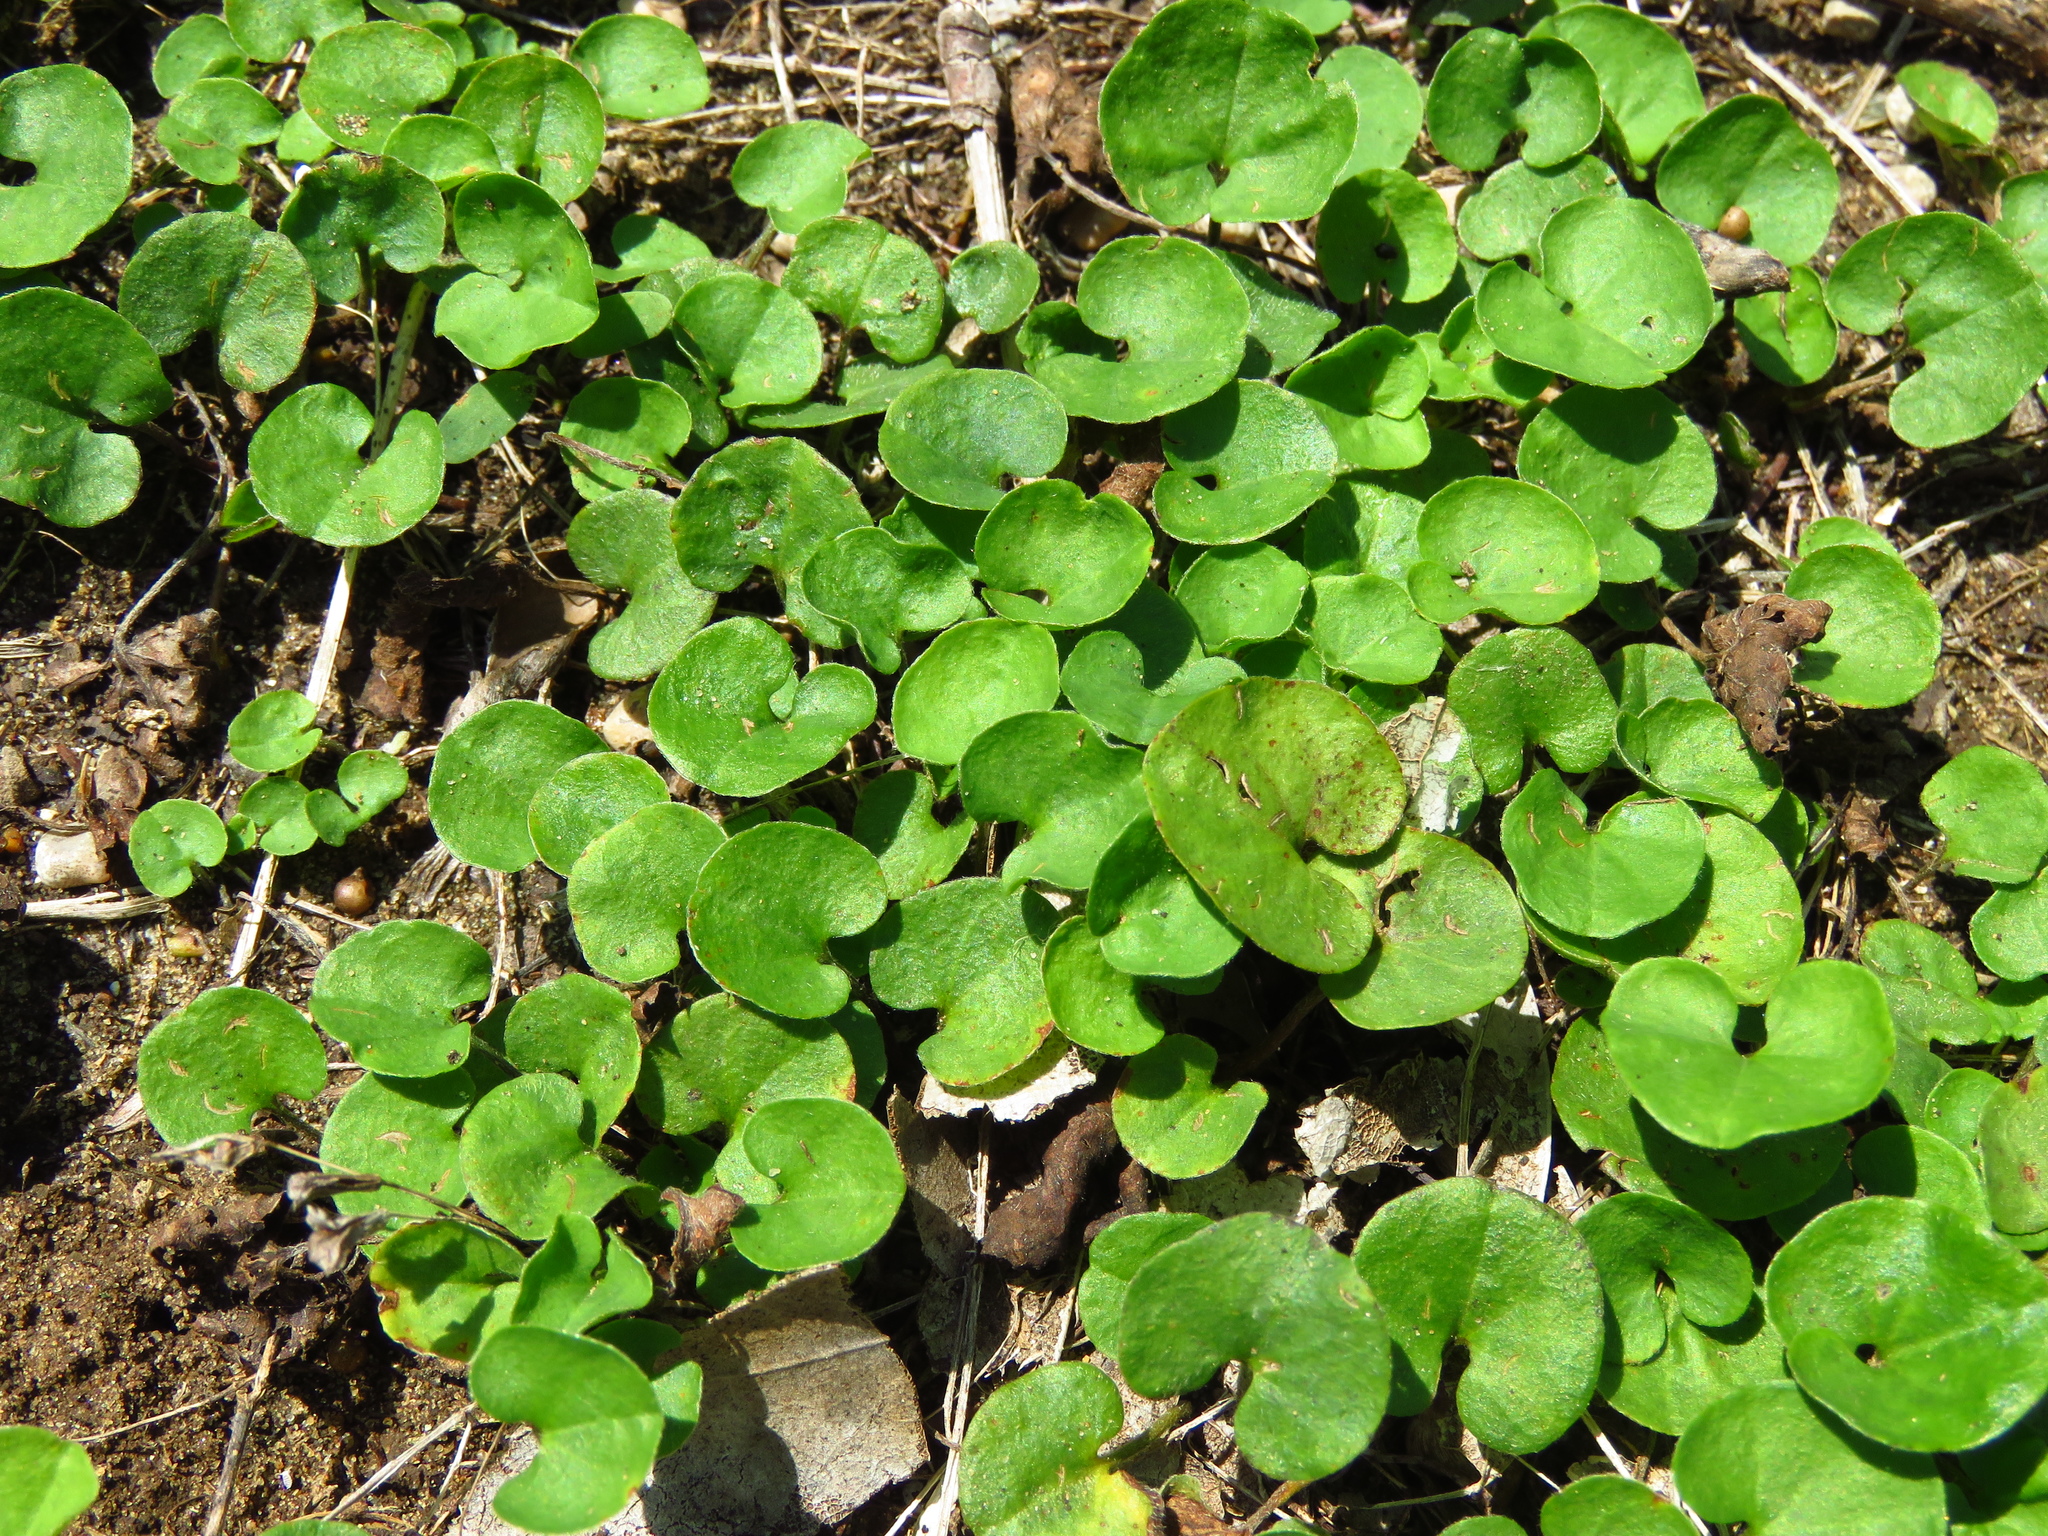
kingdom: Plantae
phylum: Tracheophyta
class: Magnoliopsida
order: Solanales
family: Convolvulaceae
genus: Dichondra
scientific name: Dichondra carolinensis
